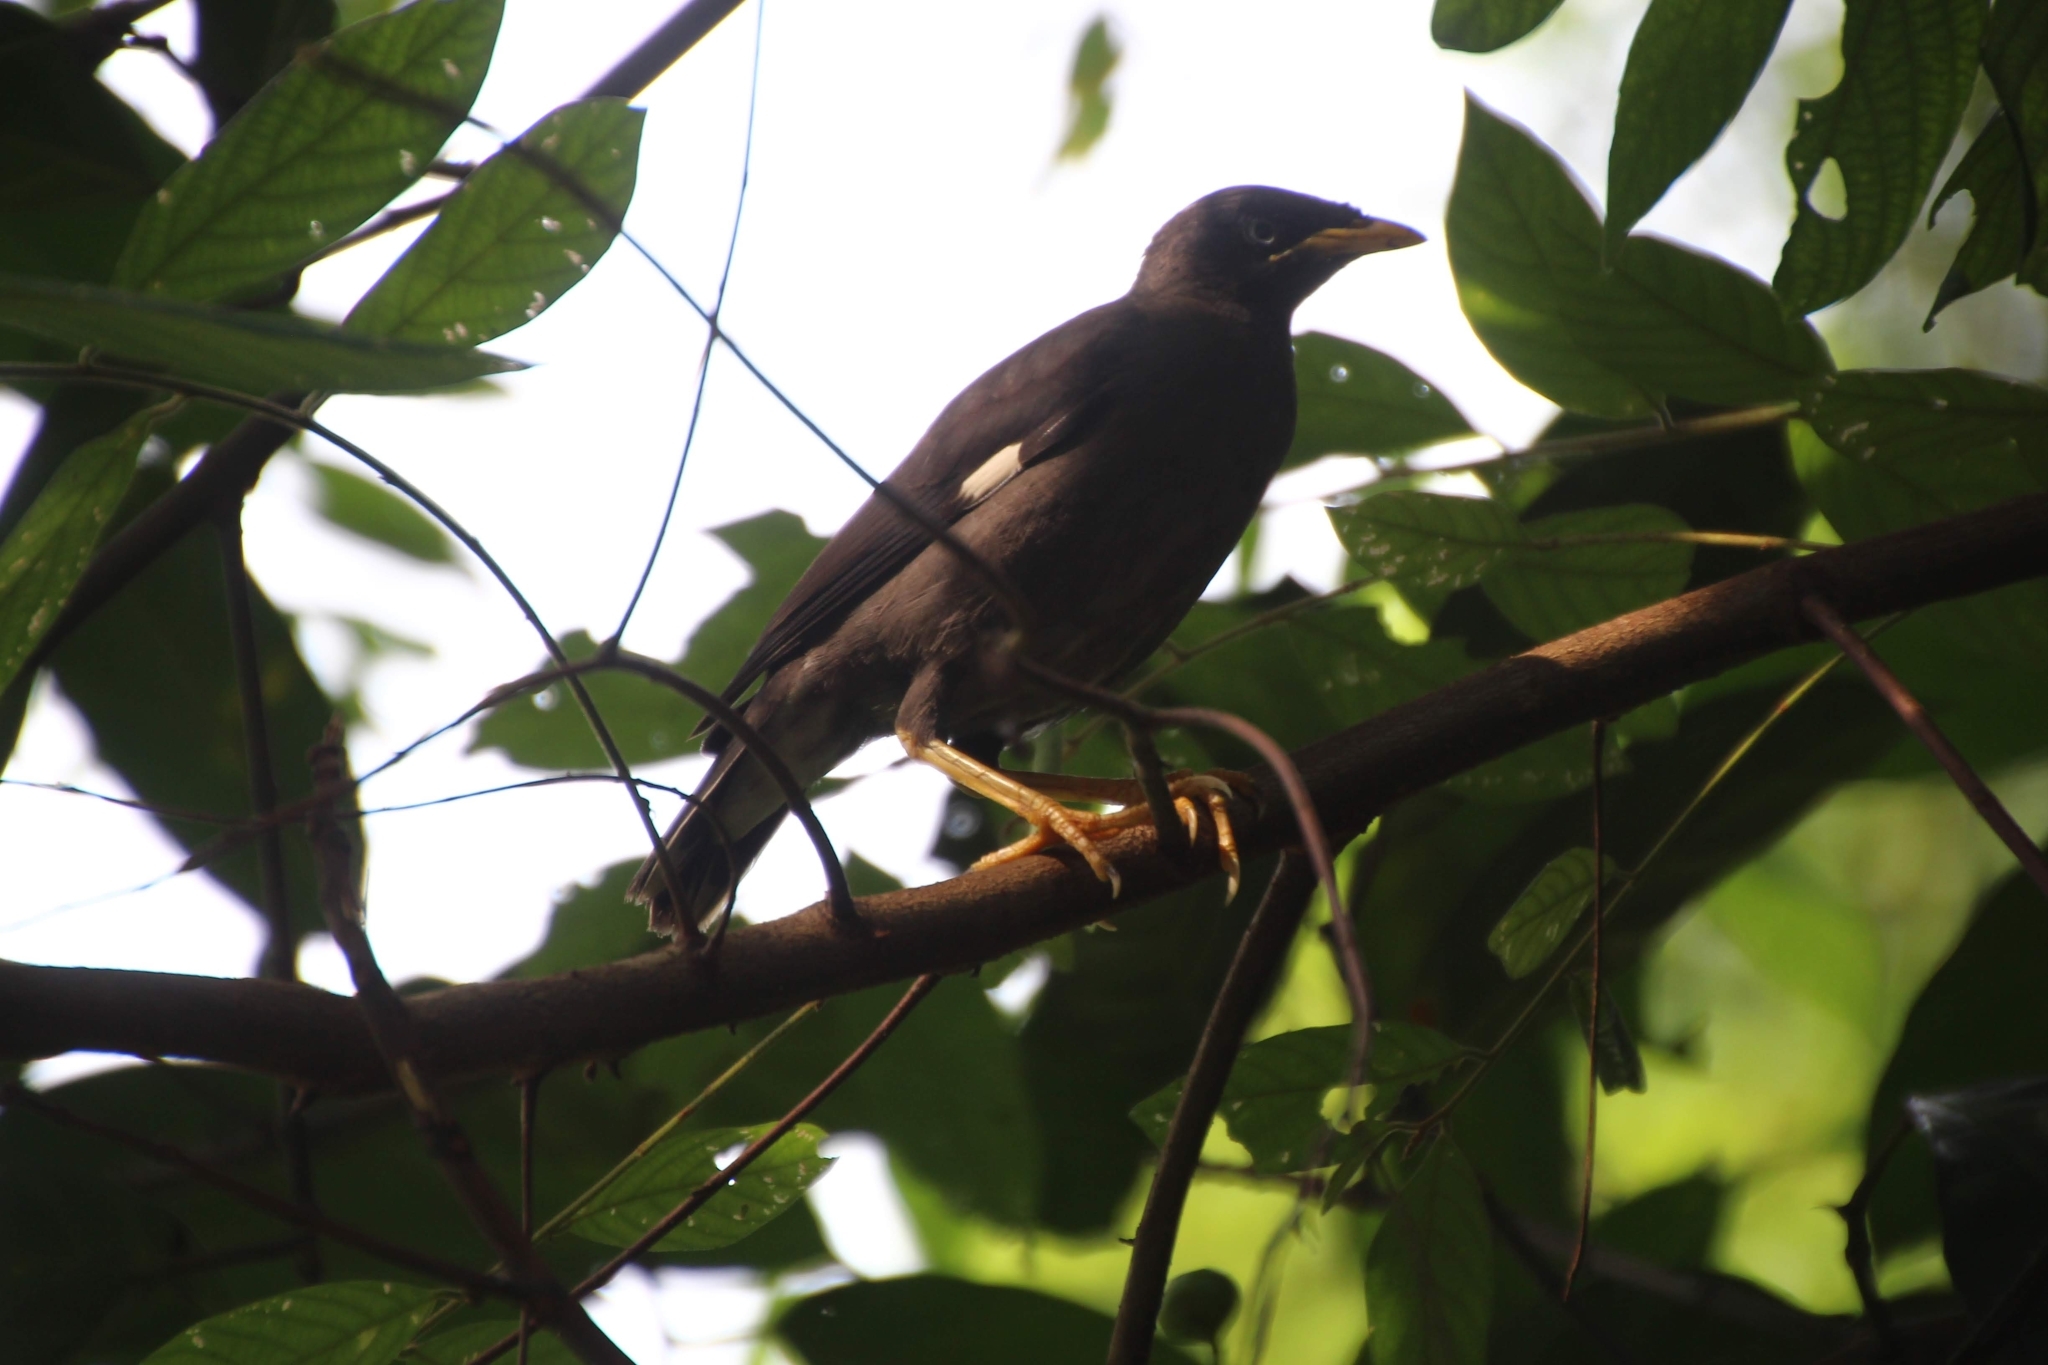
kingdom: Animalia
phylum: Chordata
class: Aves
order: Passeriformes
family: Sturnidae
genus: Acridotheres
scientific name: Acridotheres javanicus
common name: Javan myna
